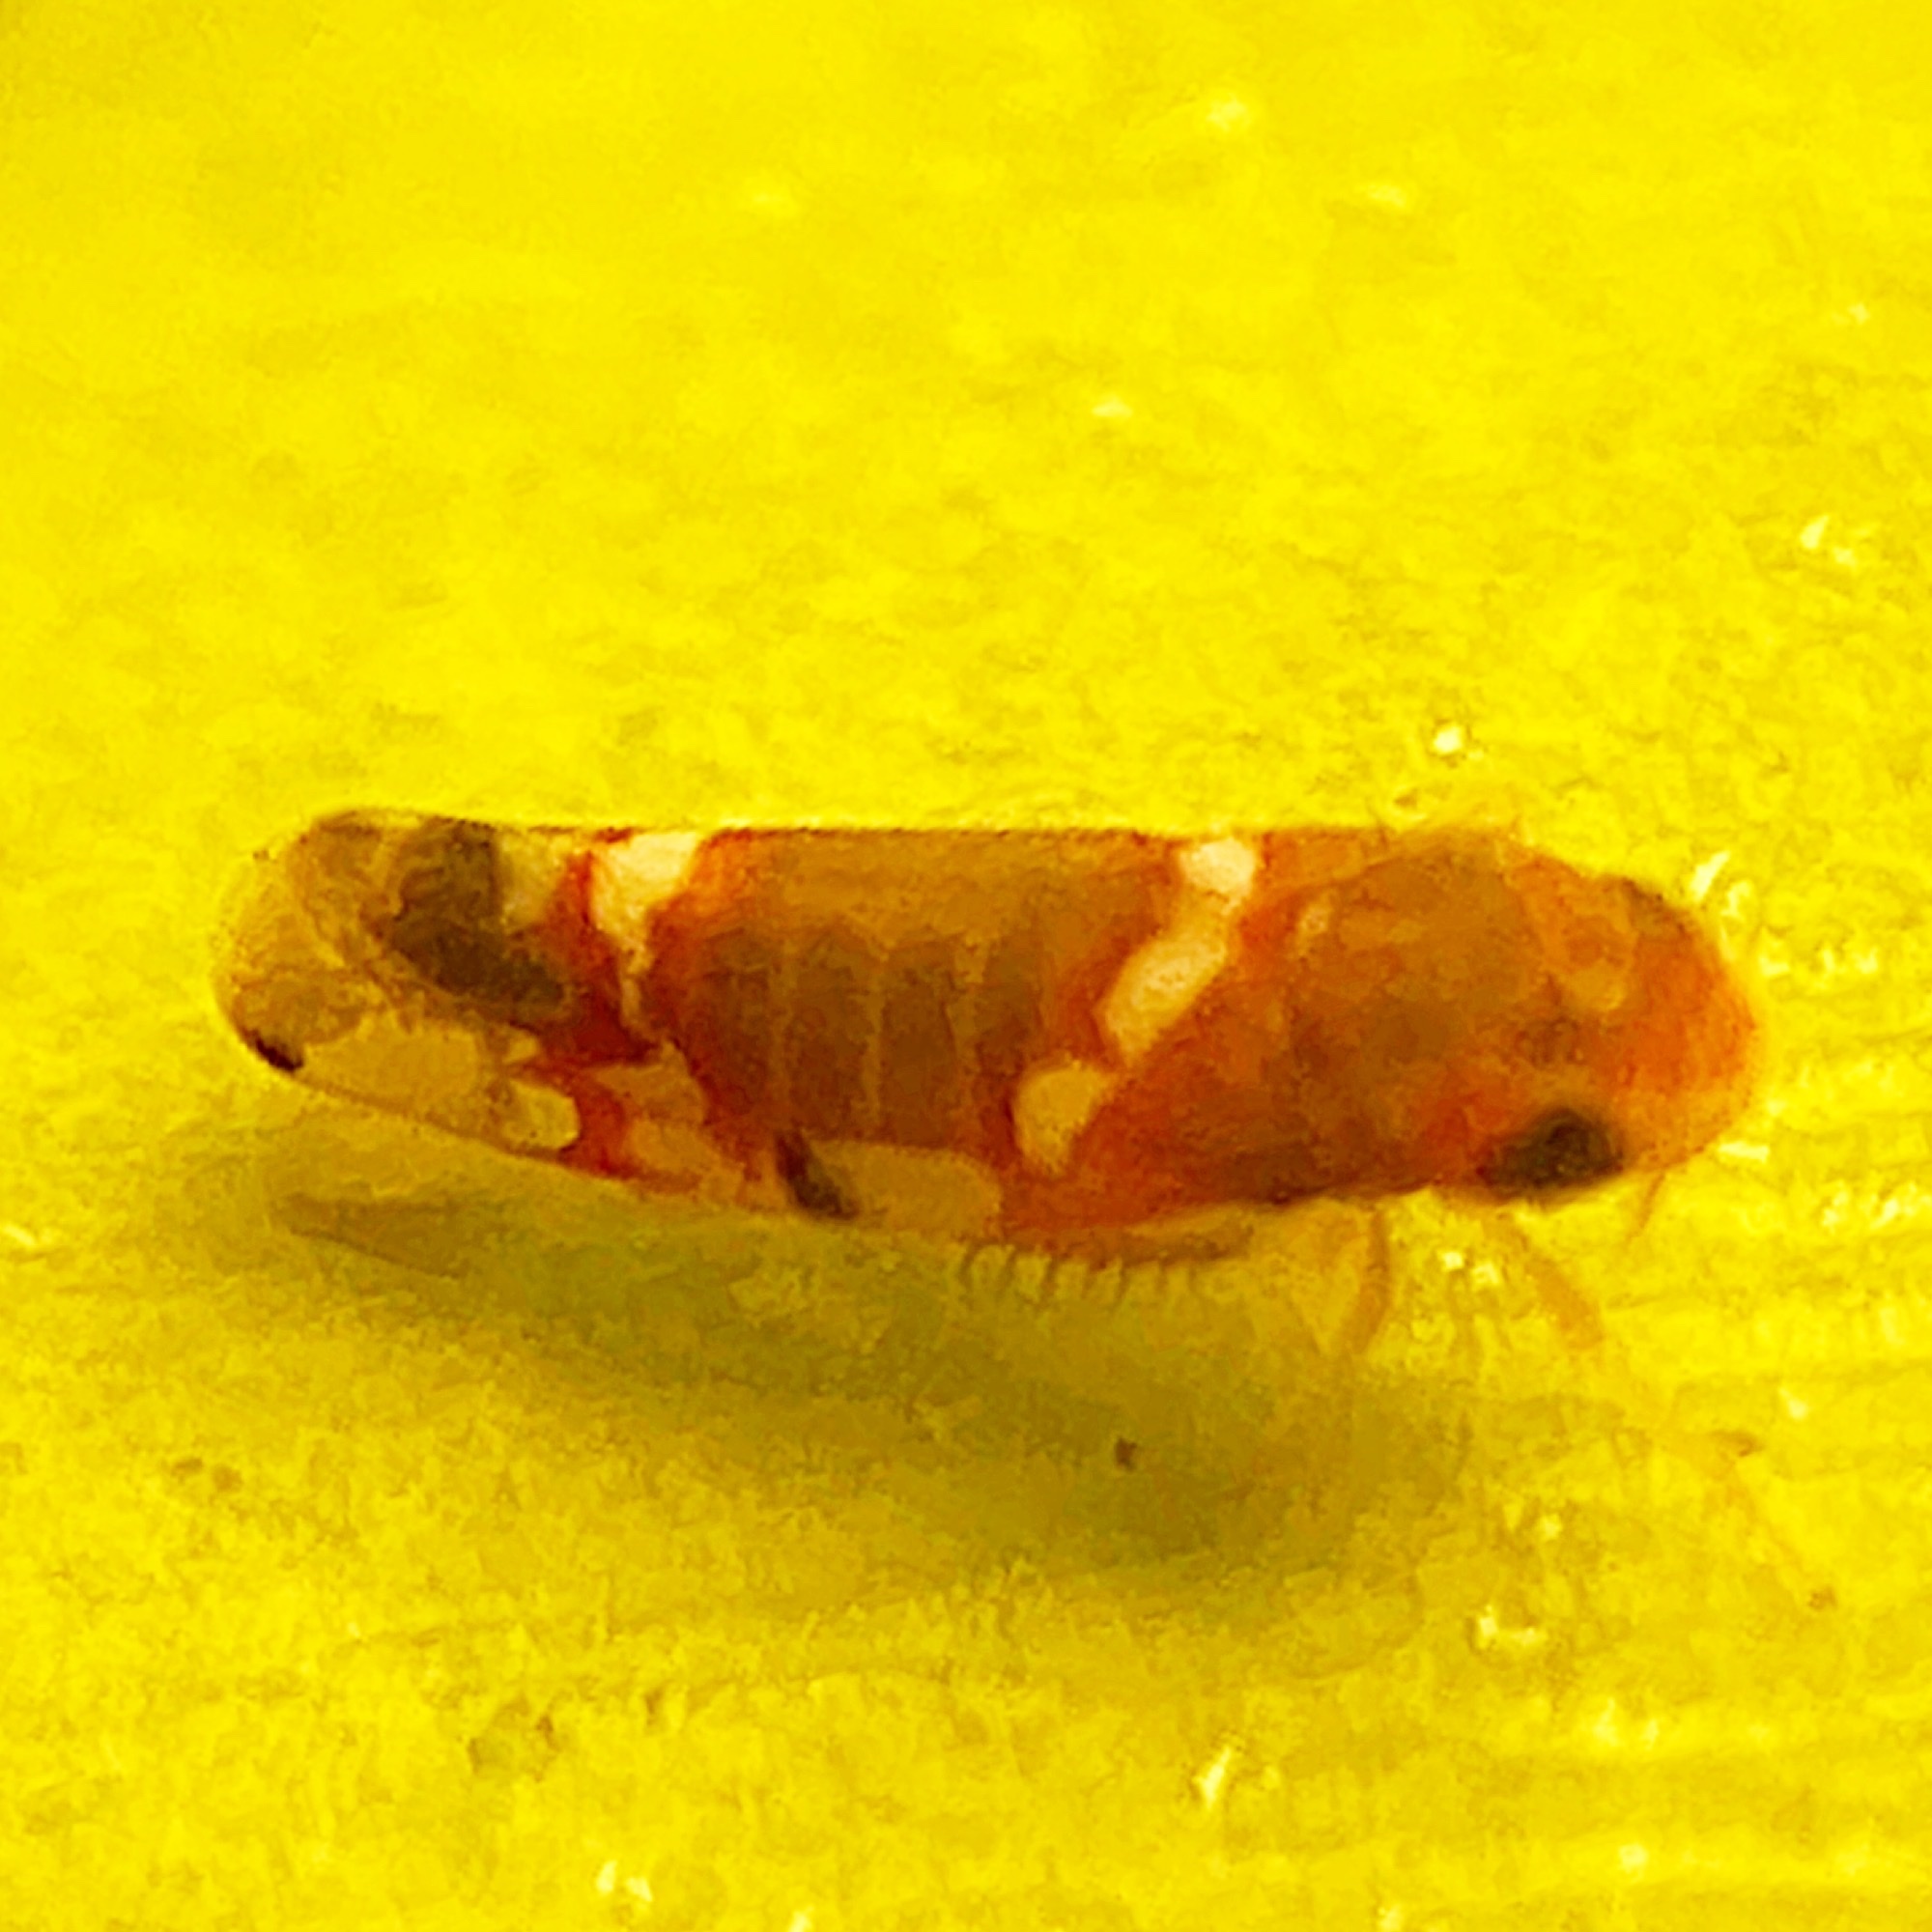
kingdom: Animalia
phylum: Arthropoda
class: Insecta
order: Hemiptera
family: Cicadellidae
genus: Erythroneura
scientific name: Erythroneura vitis
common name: Grapevine leafhopper
